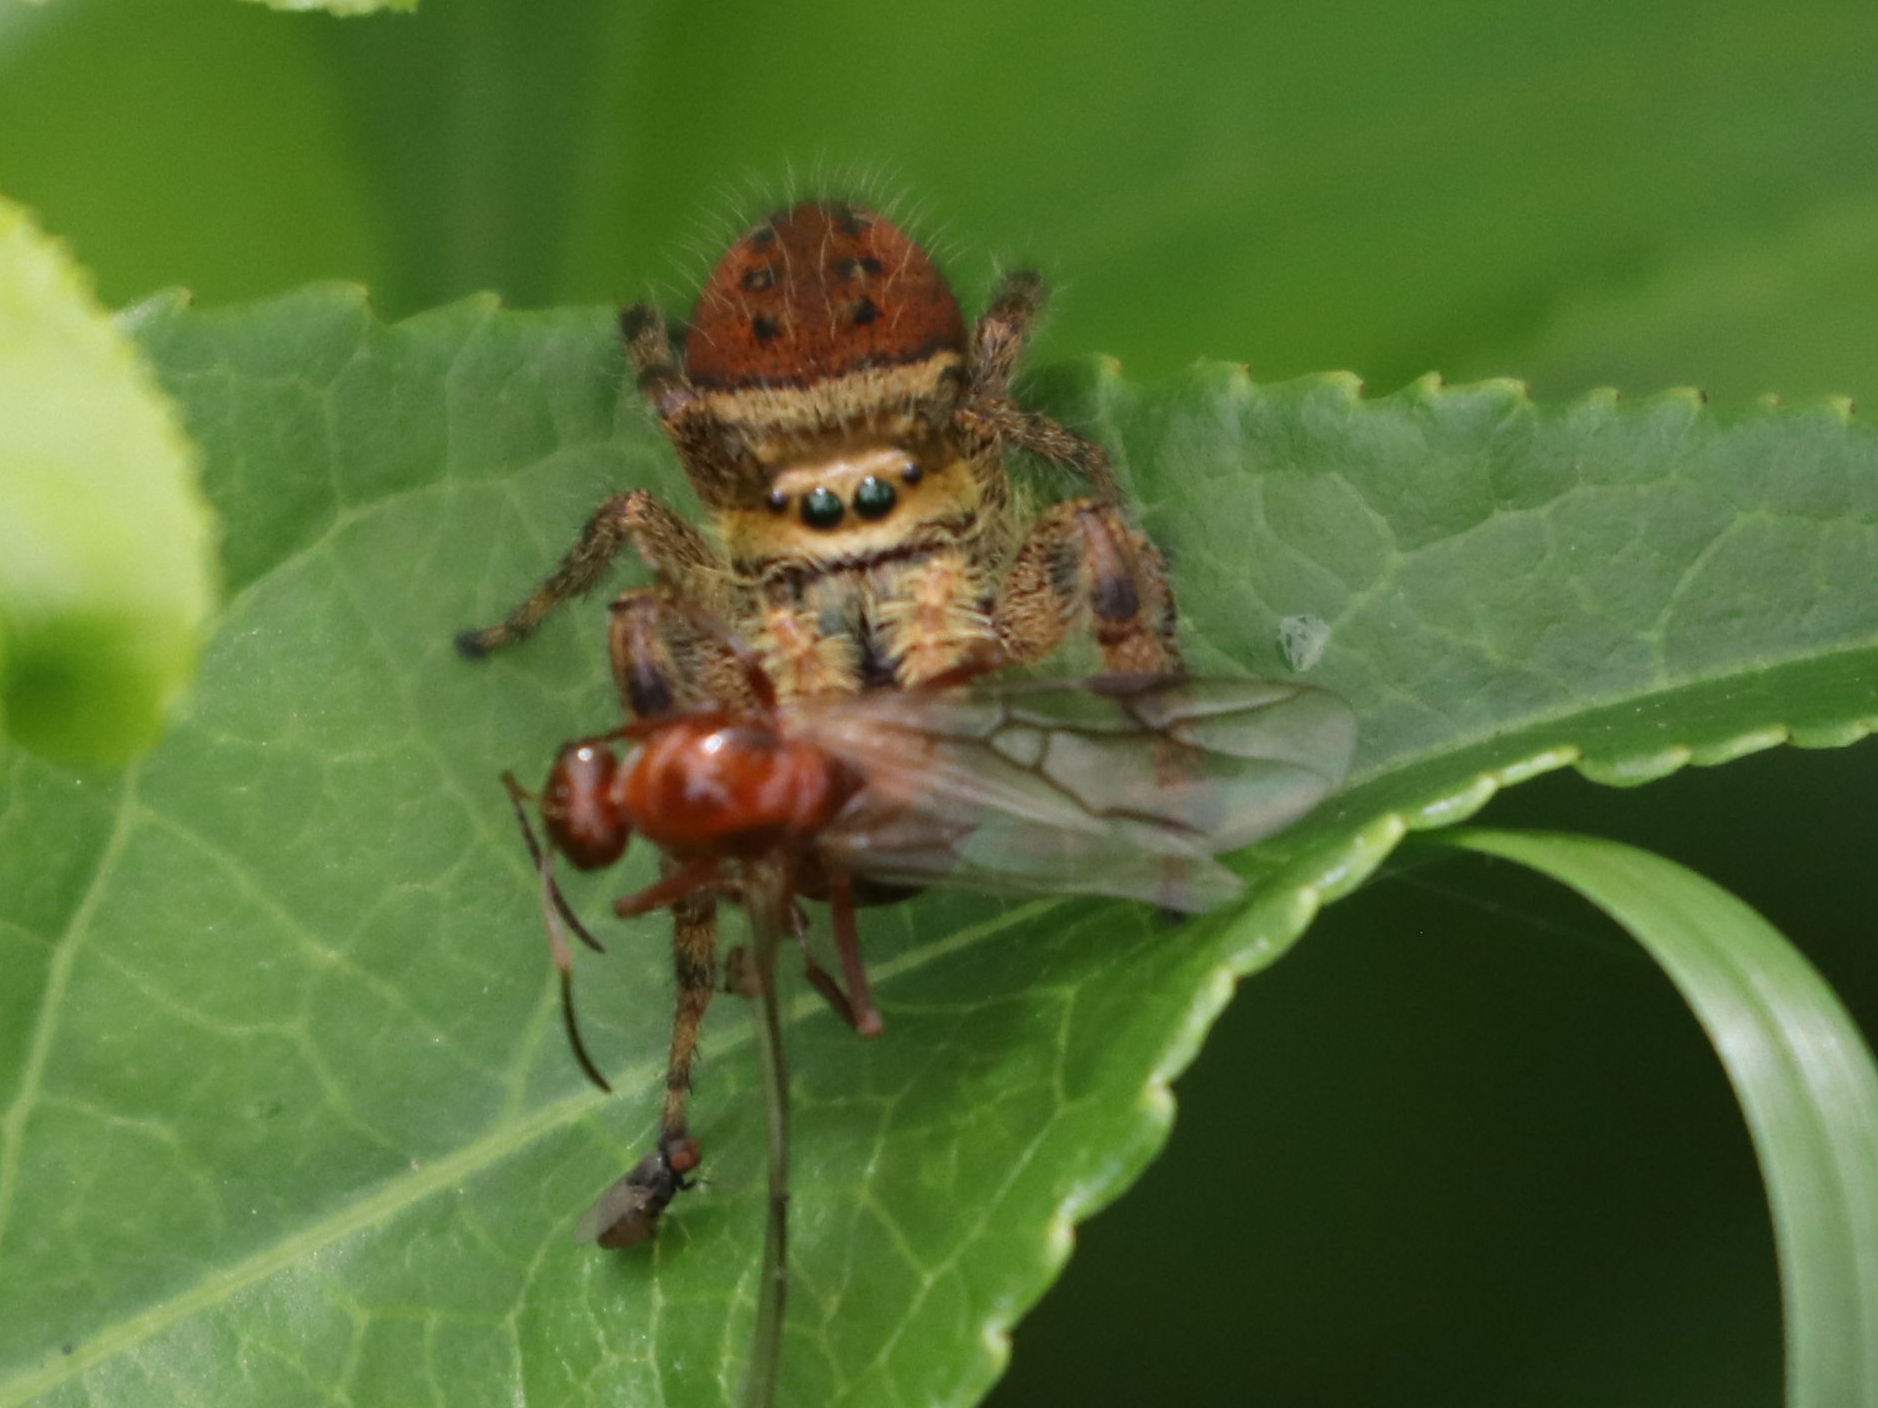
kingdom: Animalia
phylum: Arthropoda
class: Arachnida
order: Araneae
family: Salticidae
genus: Phidippus
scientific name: Phidippus clarus
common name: Brilliant jumping spider
